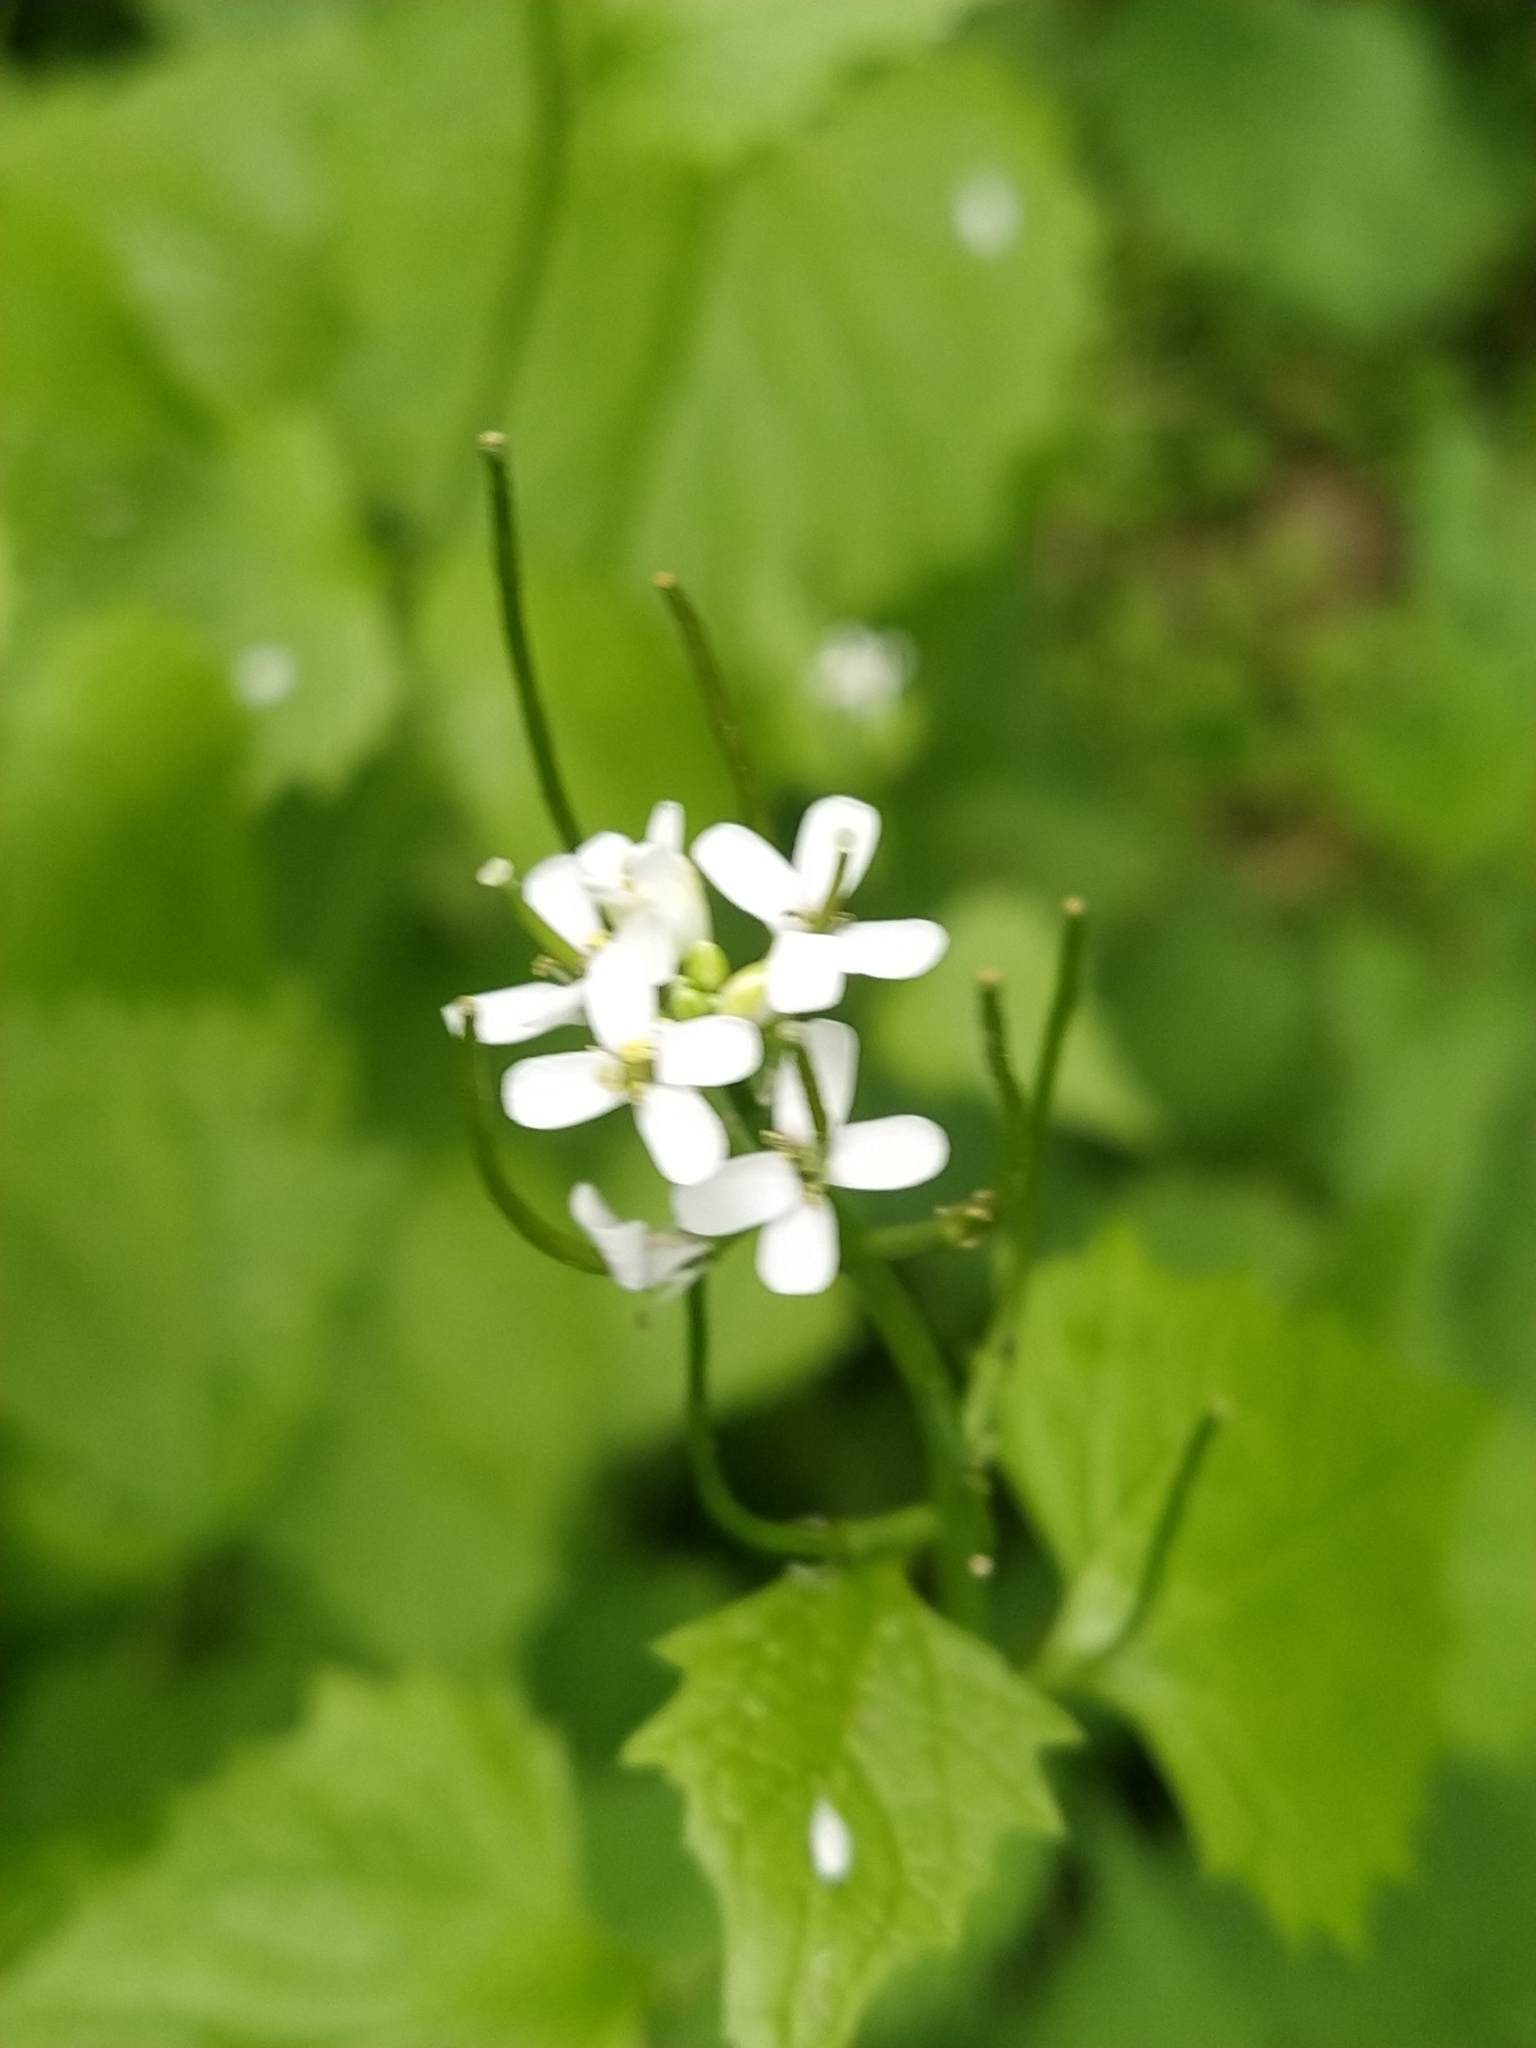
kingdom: Plantae
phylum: Tracheophyta
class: Magnoliopsida
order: Brassicales
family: Brassicaceae
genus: Alliaria
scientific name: Alliaria petiolata
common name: Garlic mustard
